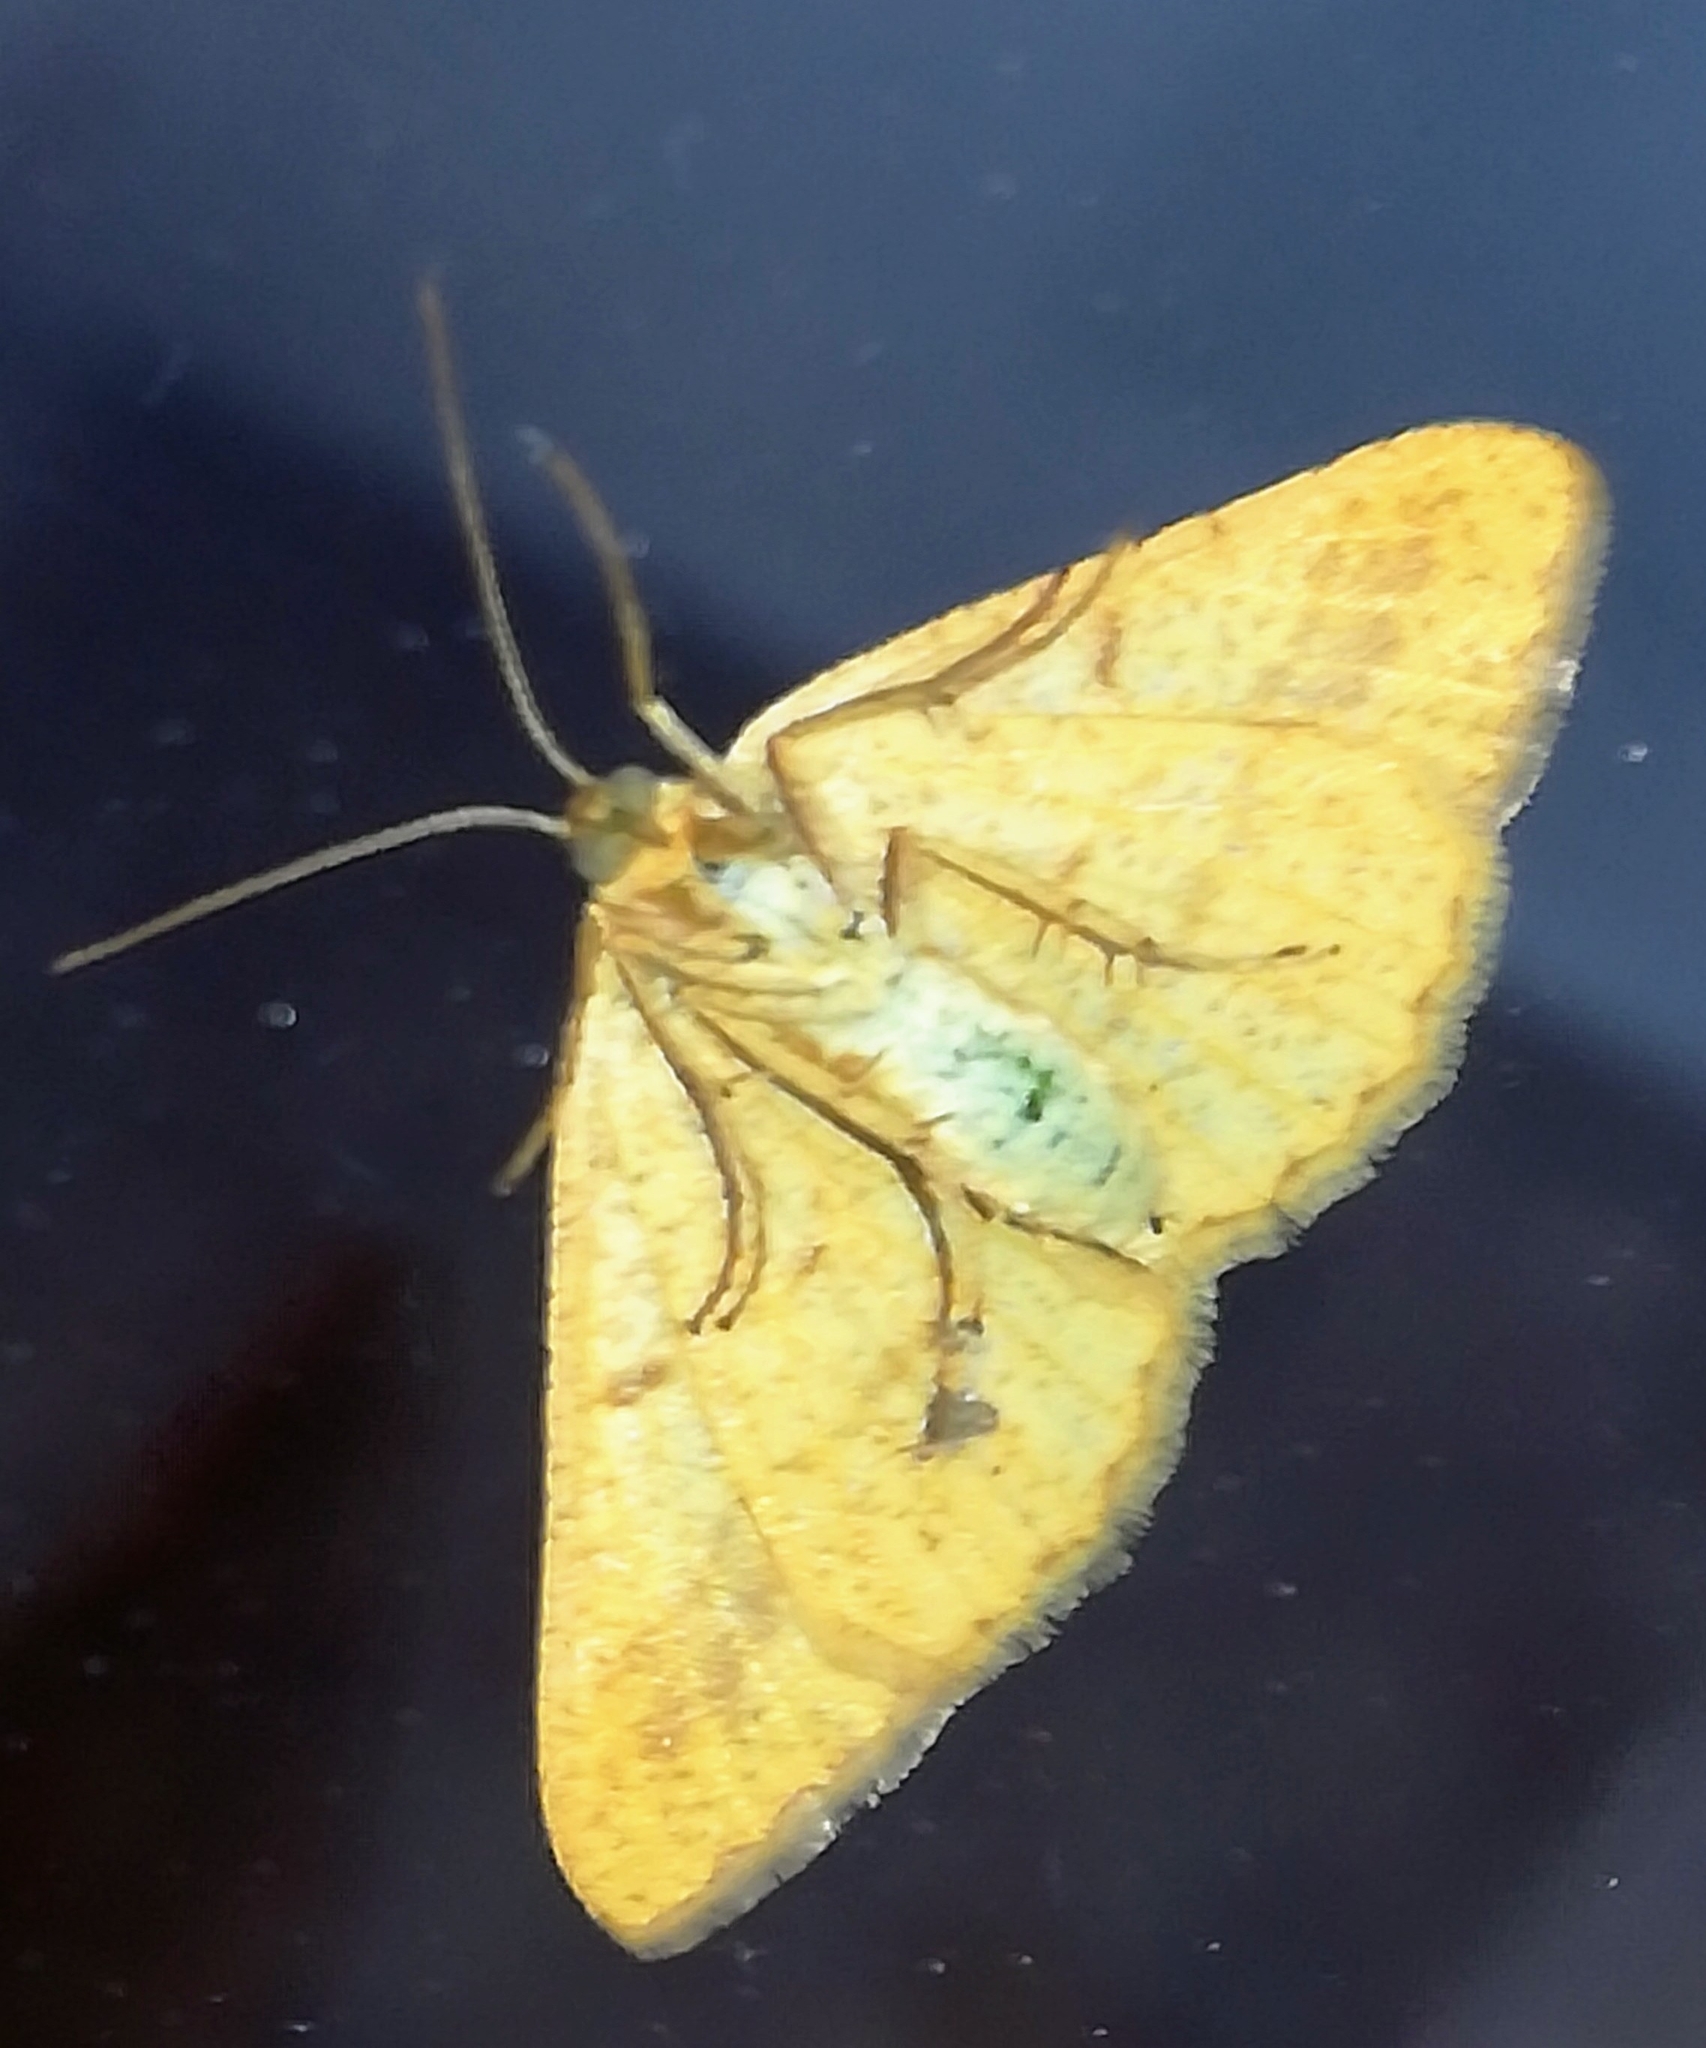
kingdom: Animalia
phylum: Arthropoda
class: Insecta
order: Lepidoptera
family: Geometridae
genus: Tephrina
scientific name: Tephrina arenacearia
